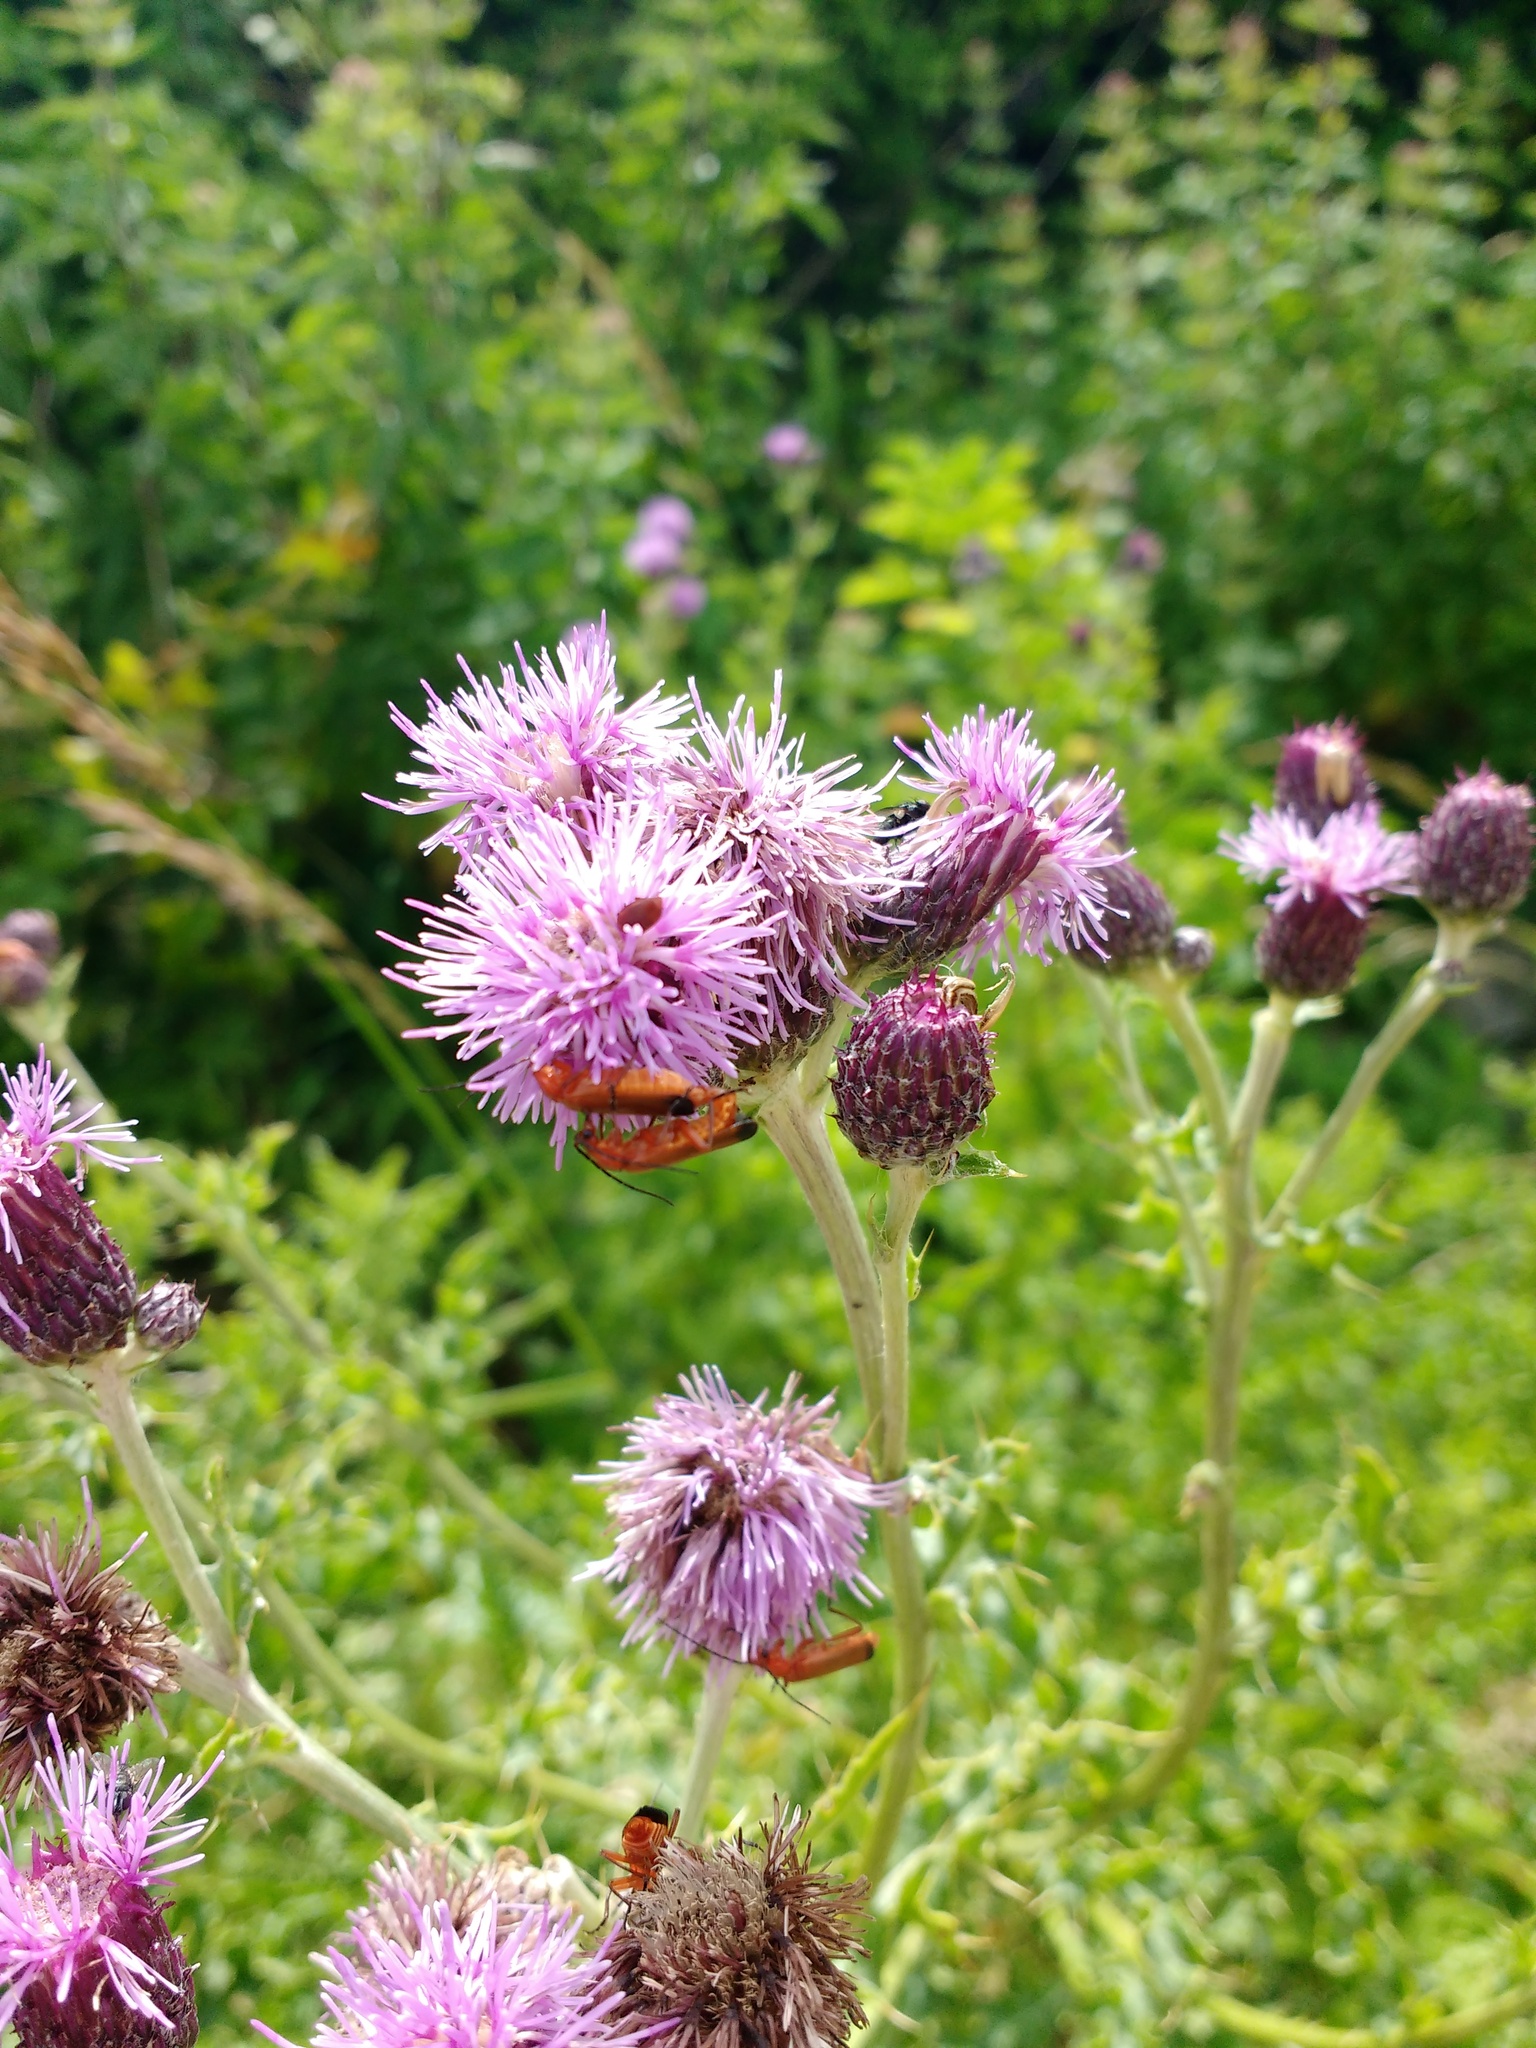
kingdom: Plantae
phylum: Tracheophyta
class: Magnoliopsida
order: Asterales
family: Asteraceae
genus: Cirsium
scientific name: Cirsium arvense
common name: Creeping thistle
